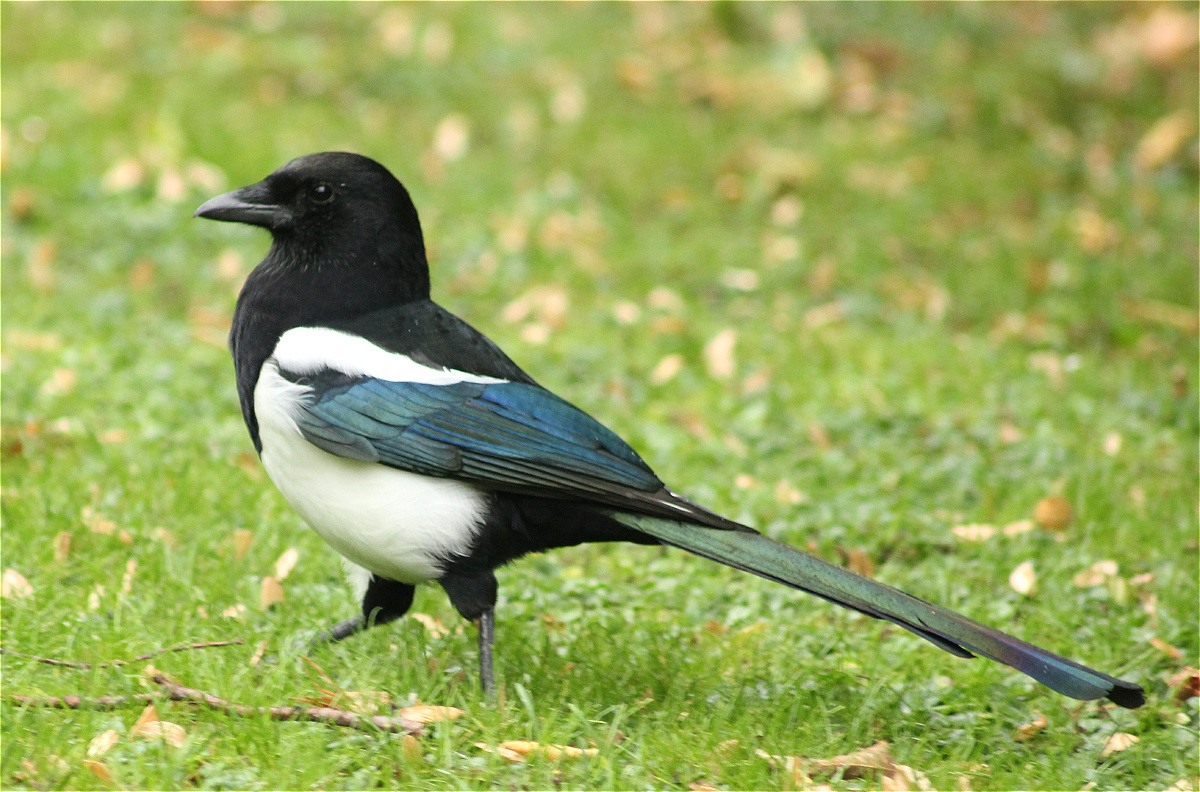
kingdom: Animalia
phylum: Chordata
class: Aves
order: Passeriformes
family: Corvidae
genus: Pica
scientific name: Pica pica
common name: Eurasian magpie
